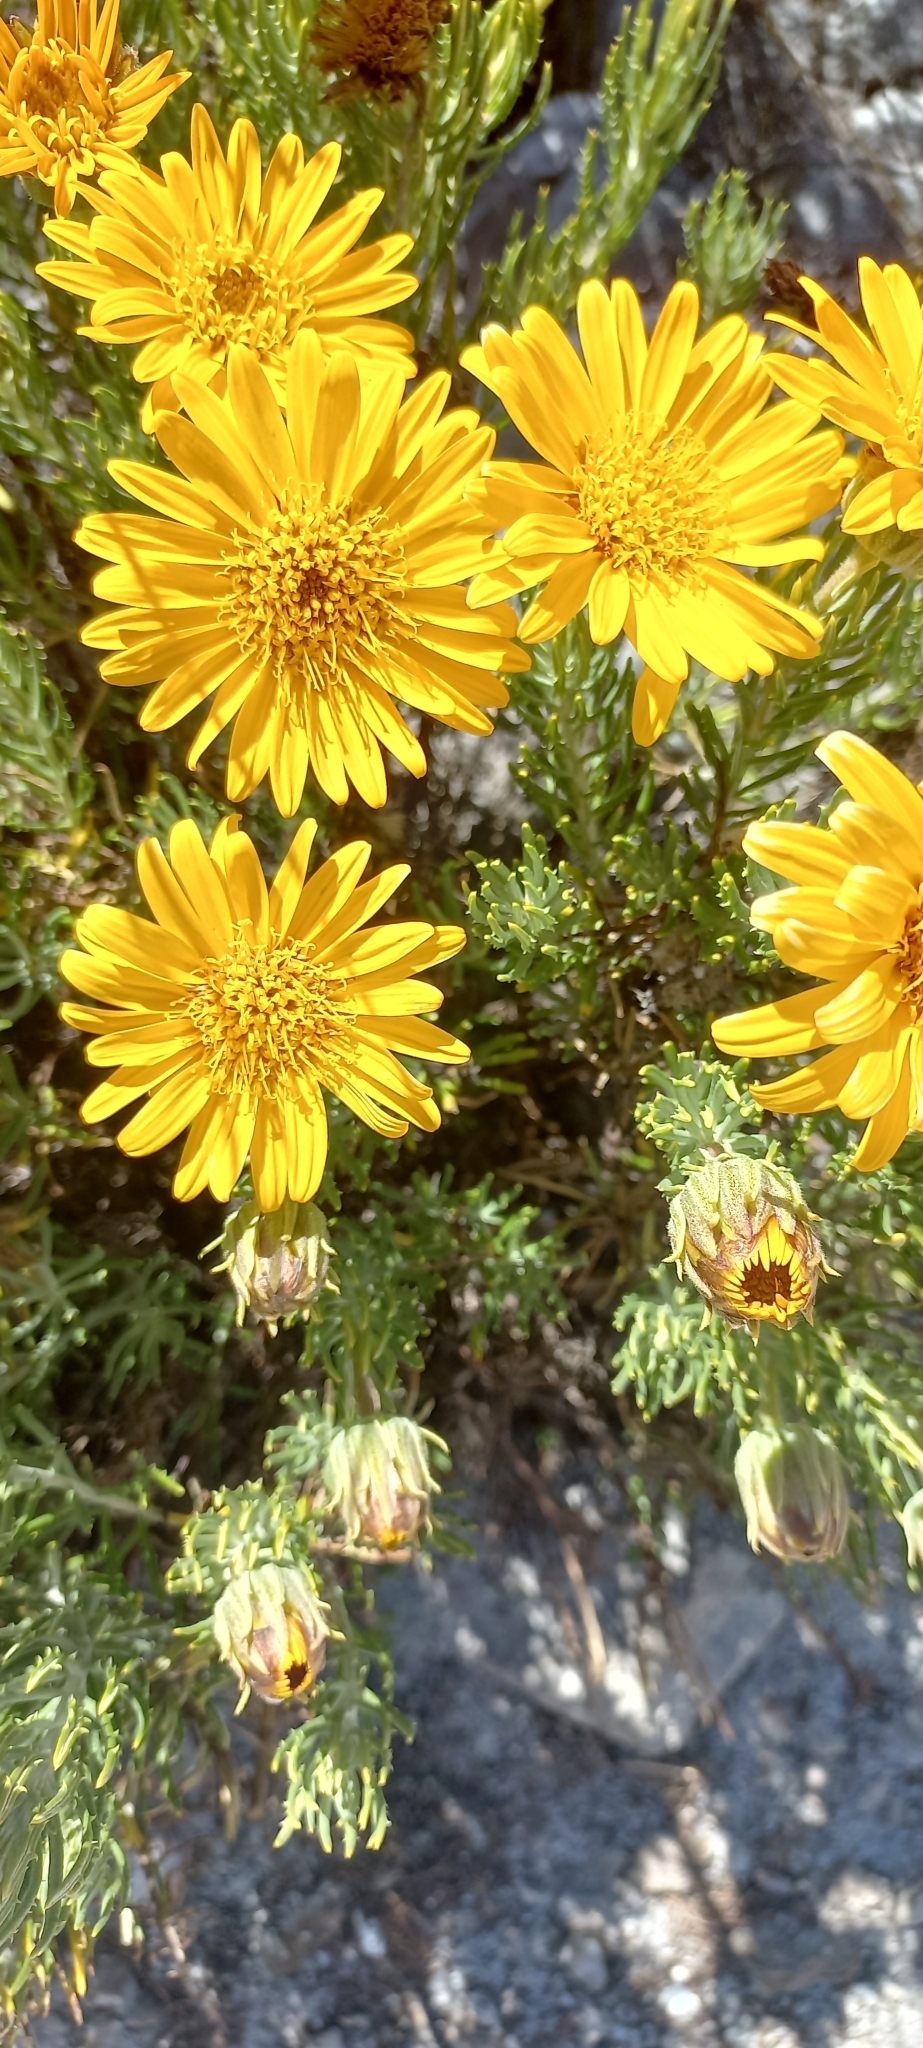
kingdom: Plantae
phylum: Tracheophyta
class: Magnoliopsida
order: Asterales
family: Asteraceae
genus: Heterolepis
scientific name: Heterolepis aliena
